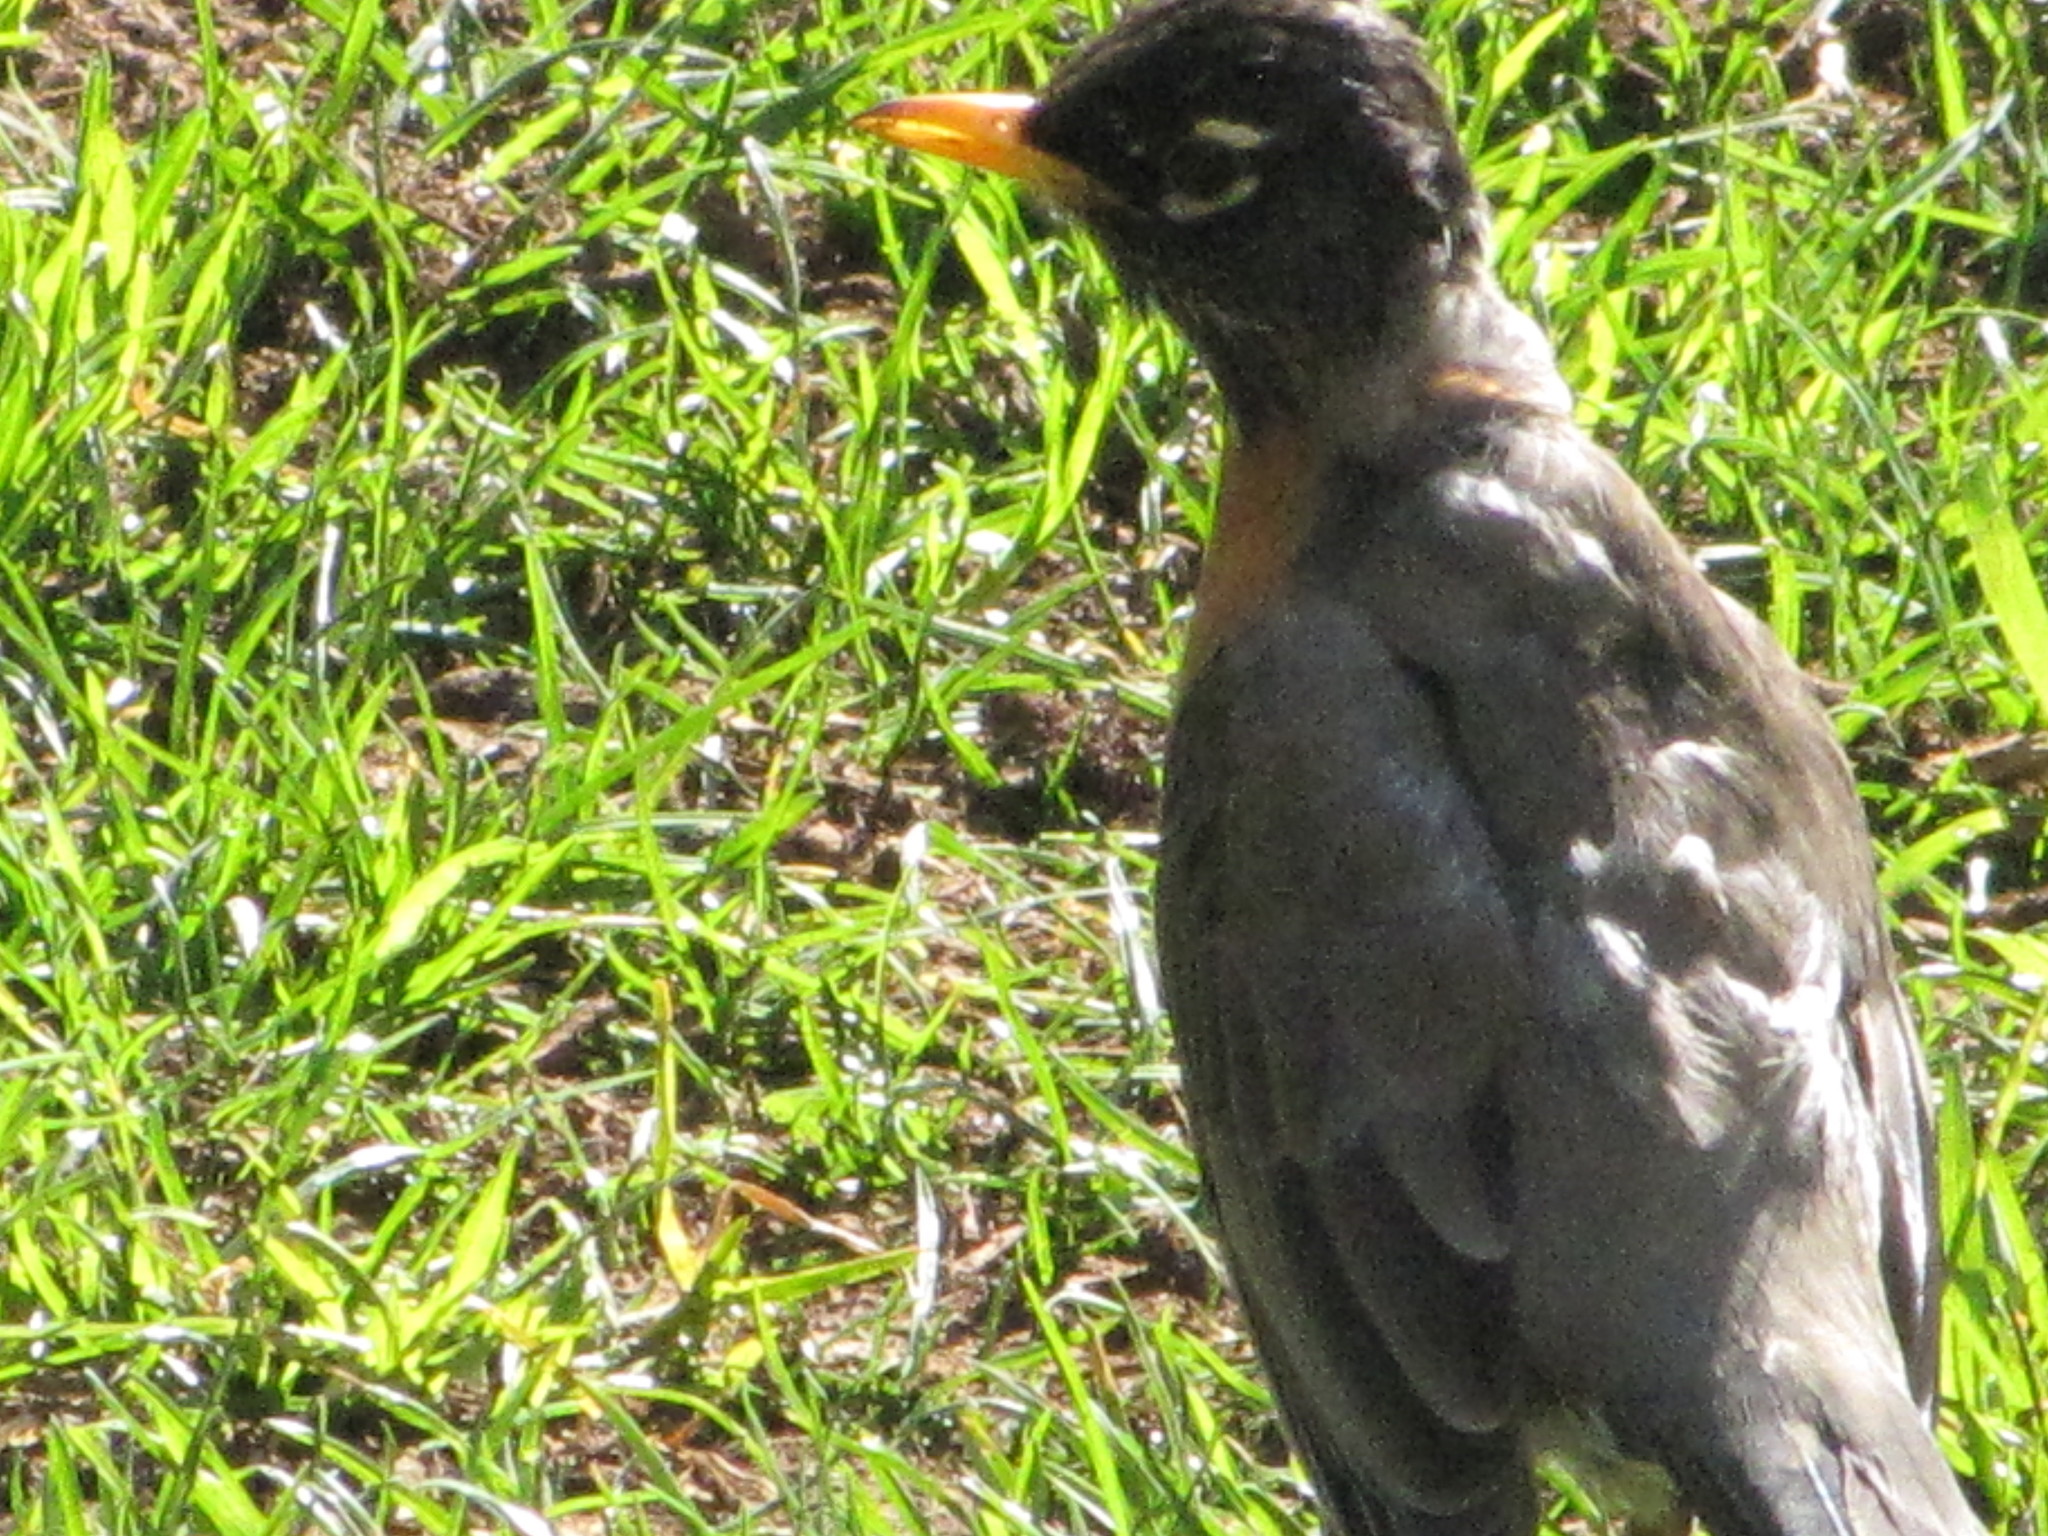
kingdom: Animalia
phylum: Chordata
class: Aves
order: Passeriformes
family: Turdidae
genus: Turdus
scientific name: Turdus migratorius
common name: American robin
